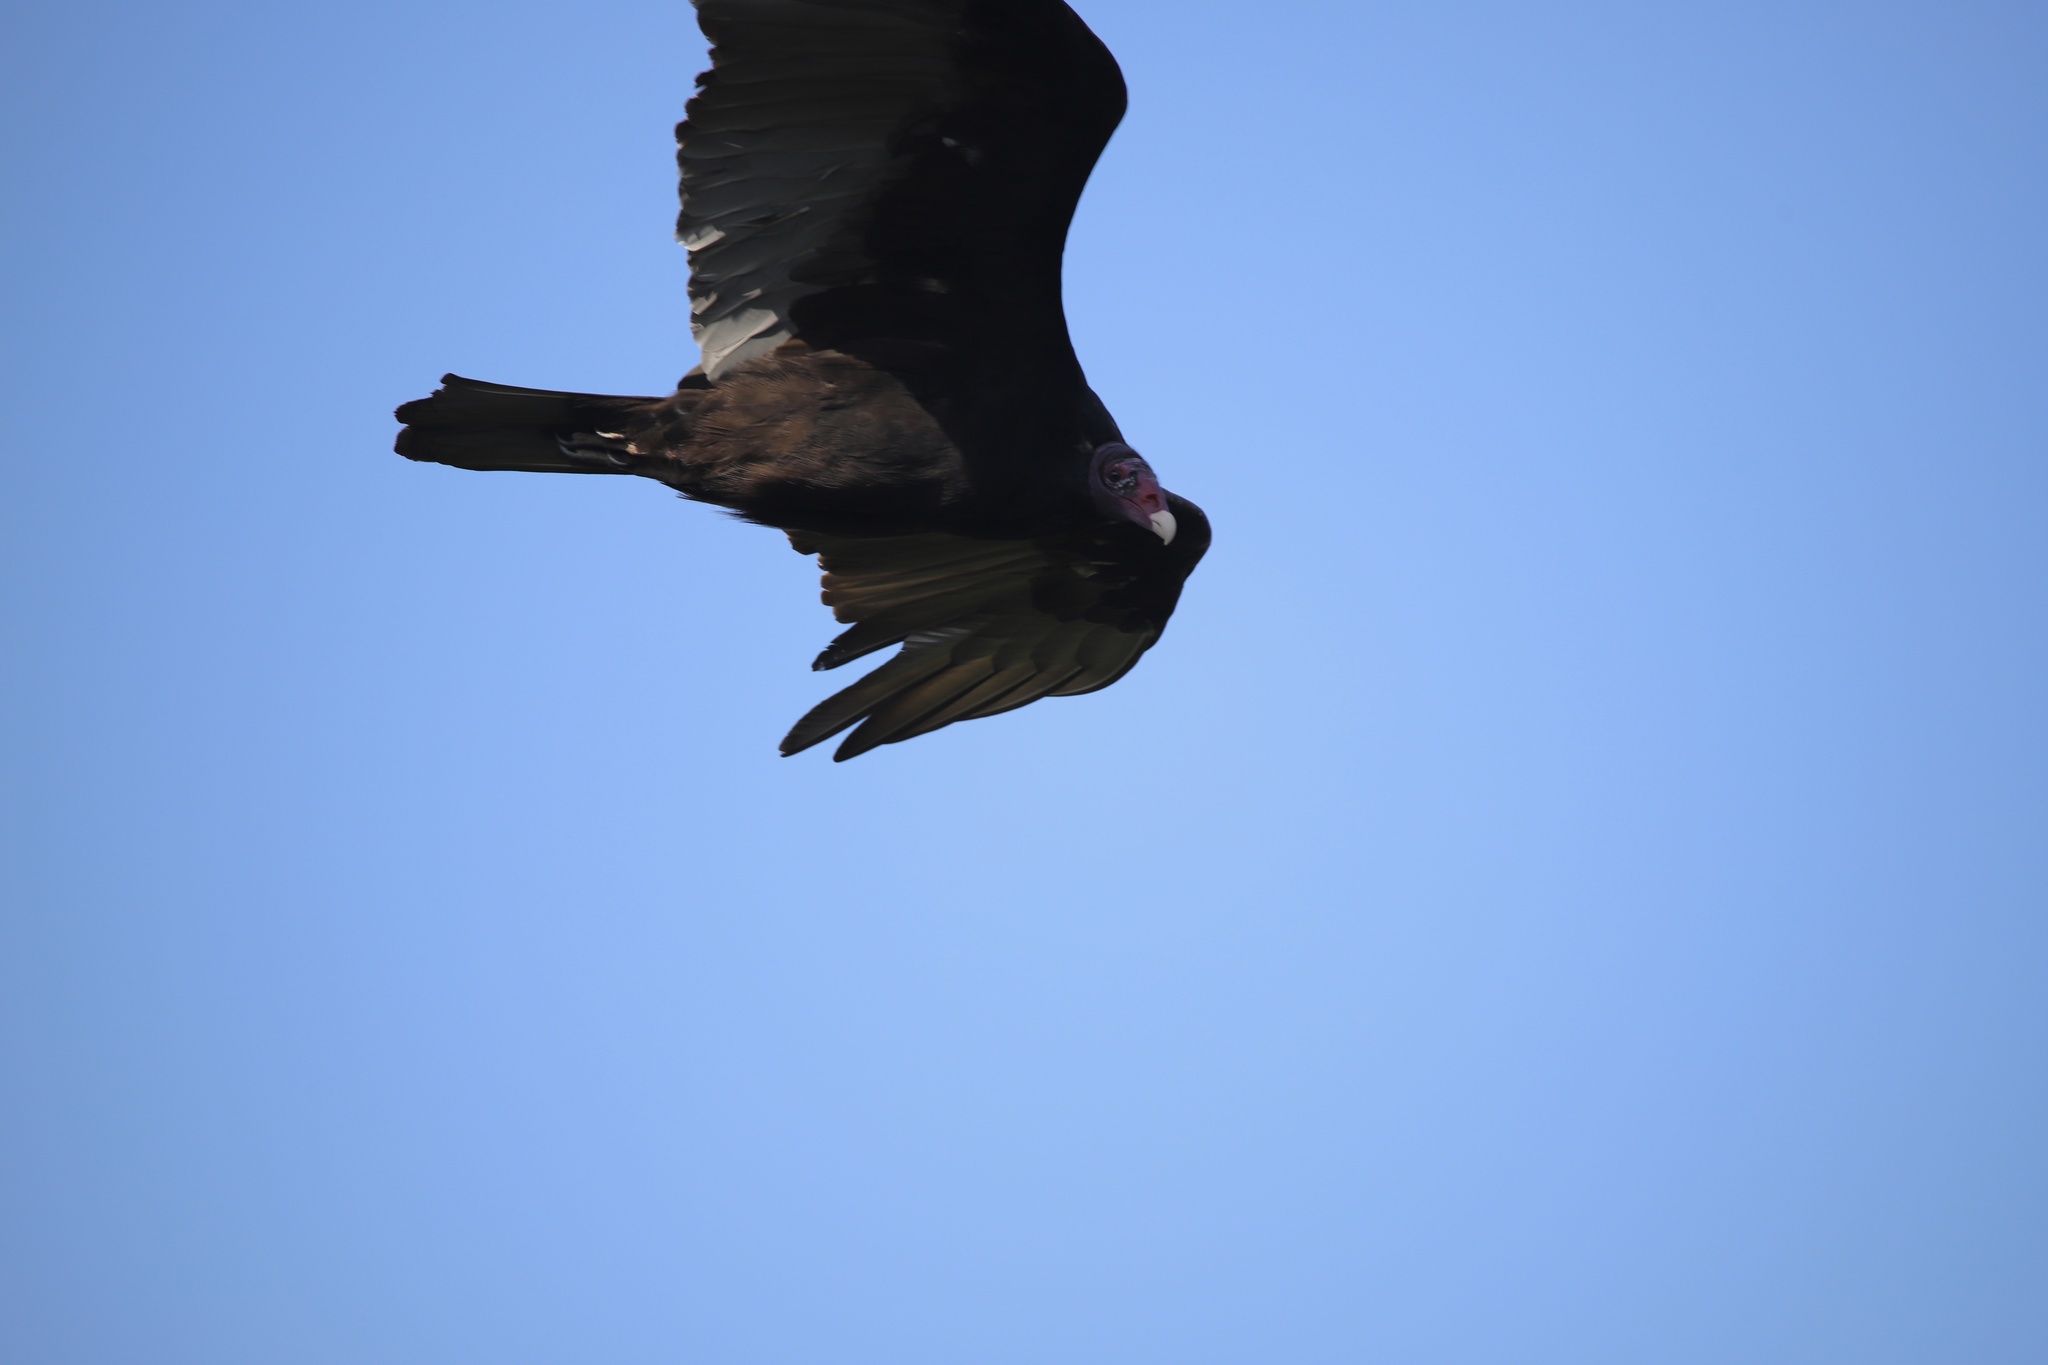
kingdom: Animalia
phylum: Chordata
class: Aves
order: Accipitriformes
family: Cathartidae
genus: Cathartes
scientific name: Cathartes aura
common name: Turkey vulture
